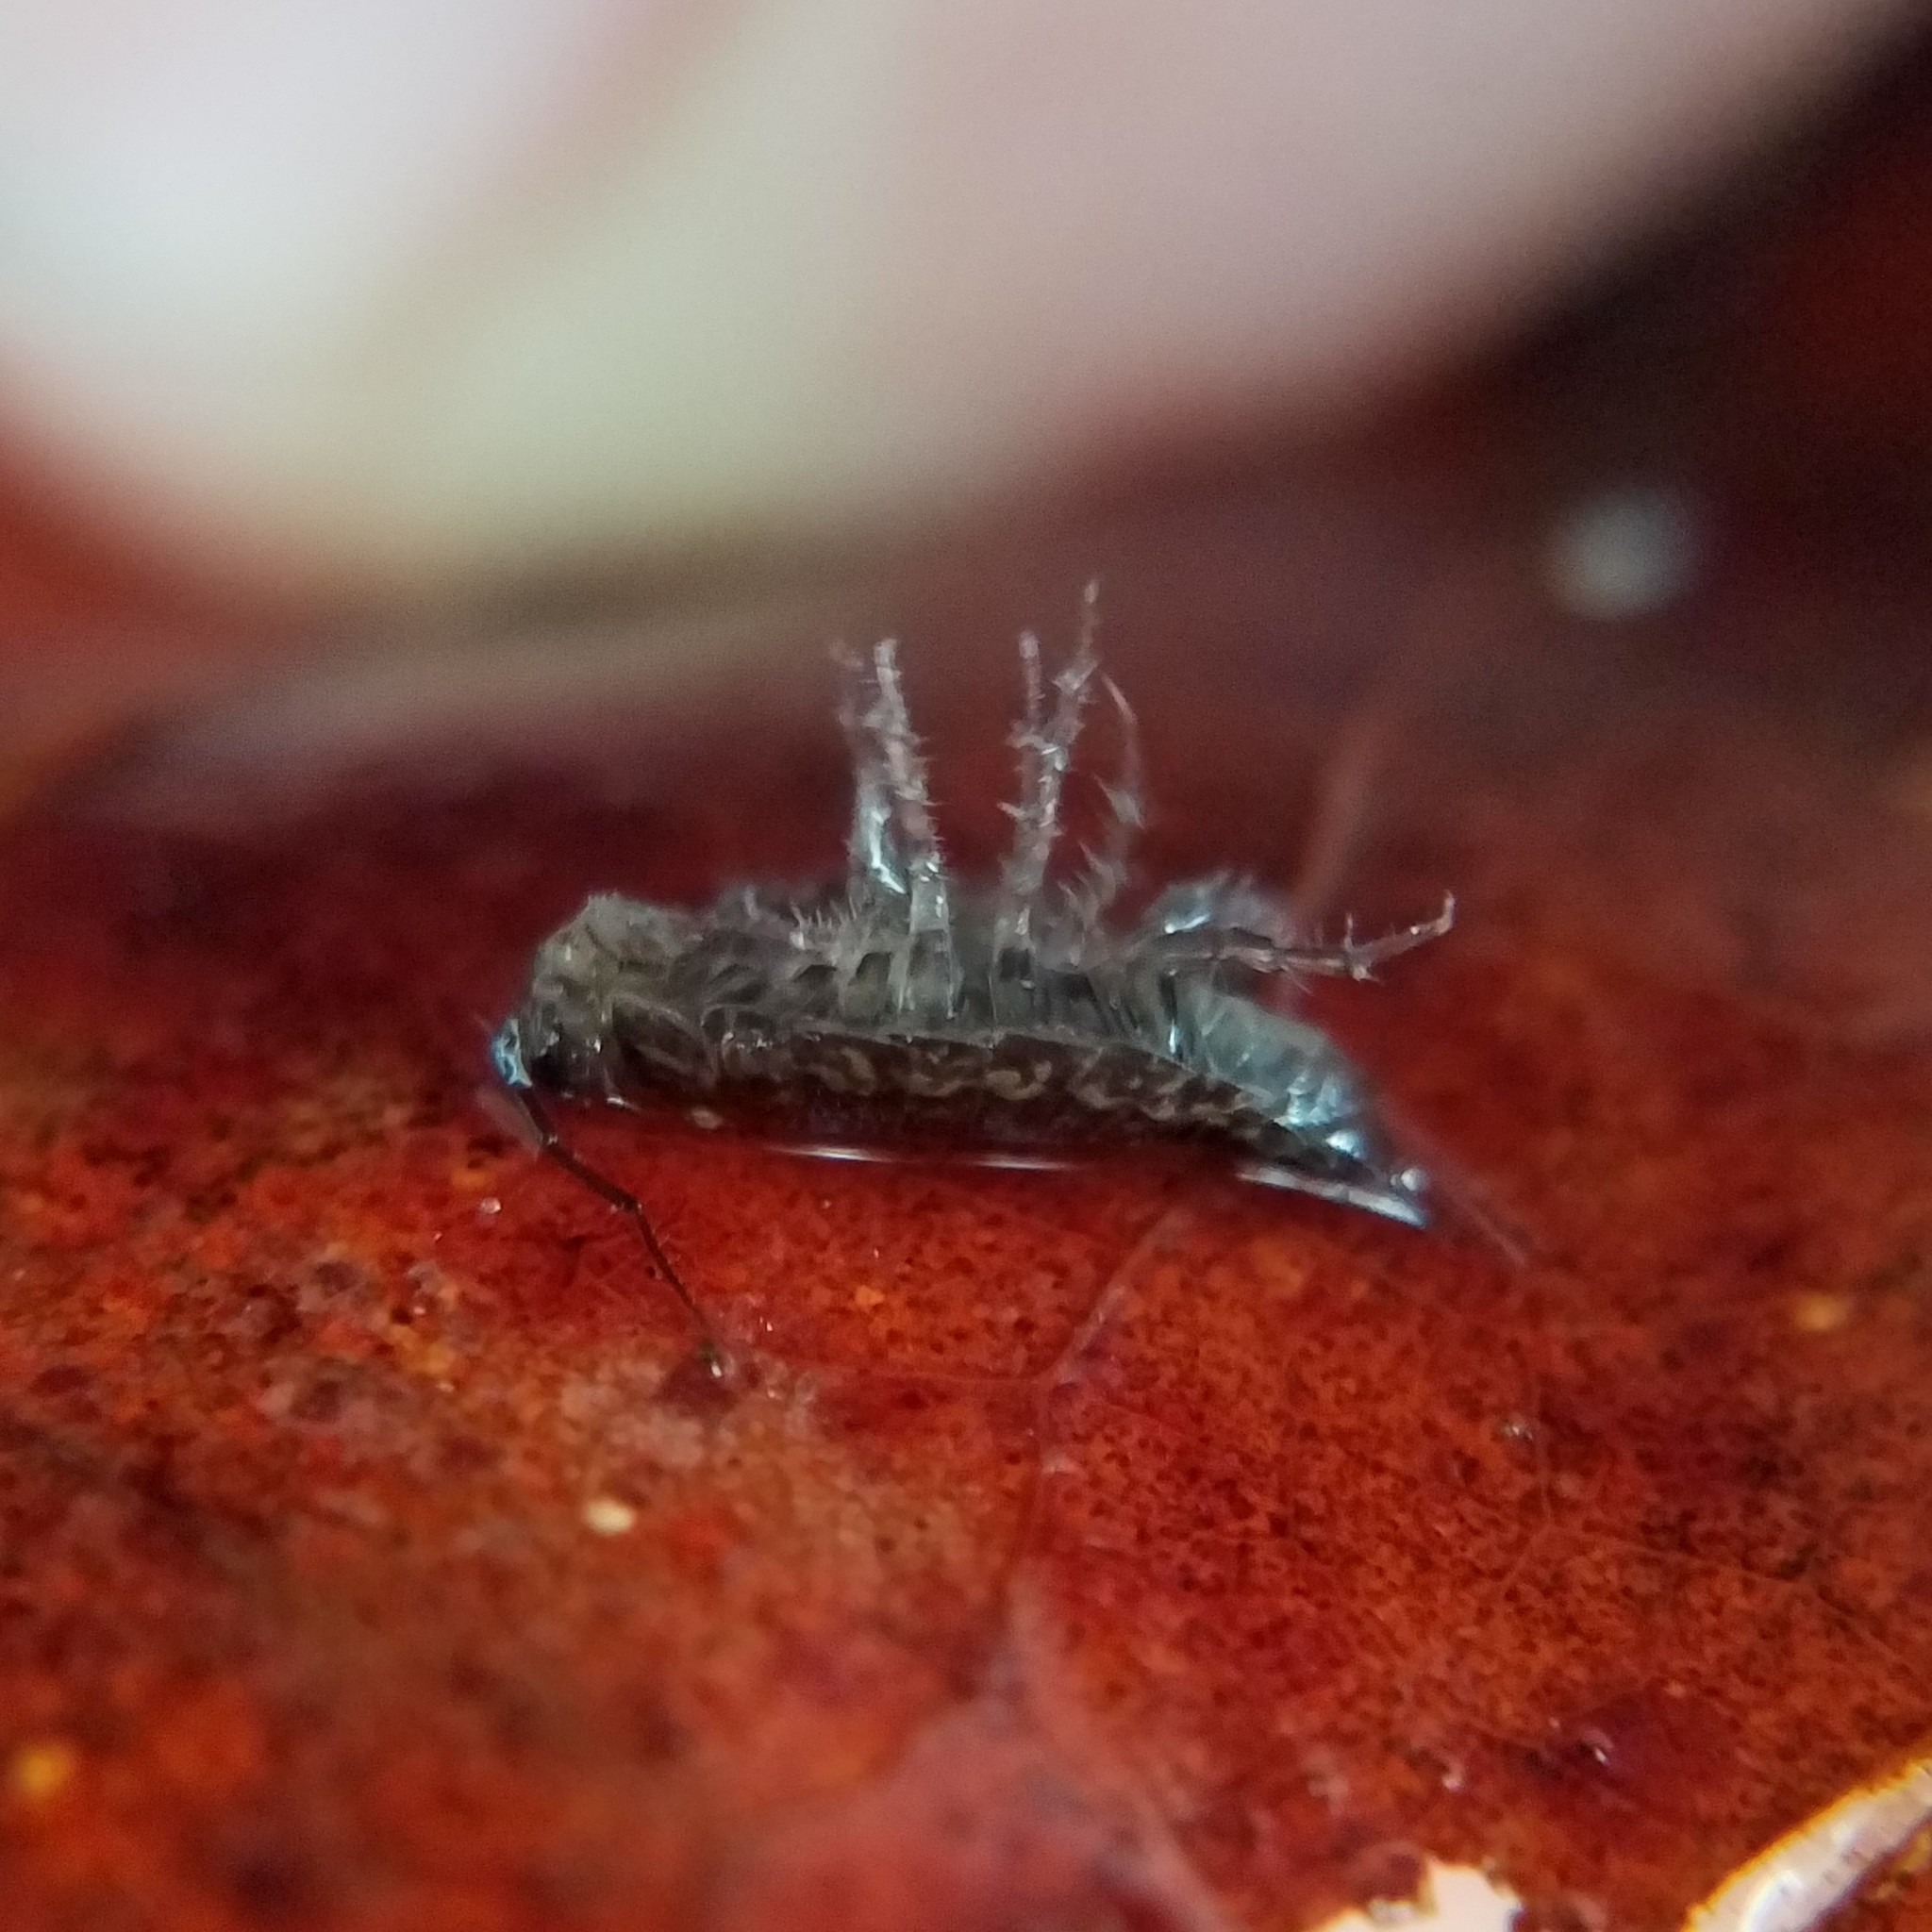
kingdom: Animalia
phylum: Arthropoda
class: Malacostraca
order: Isopoda
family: Ligiidae
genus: Ligidium
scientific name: Ligidium elrodii
